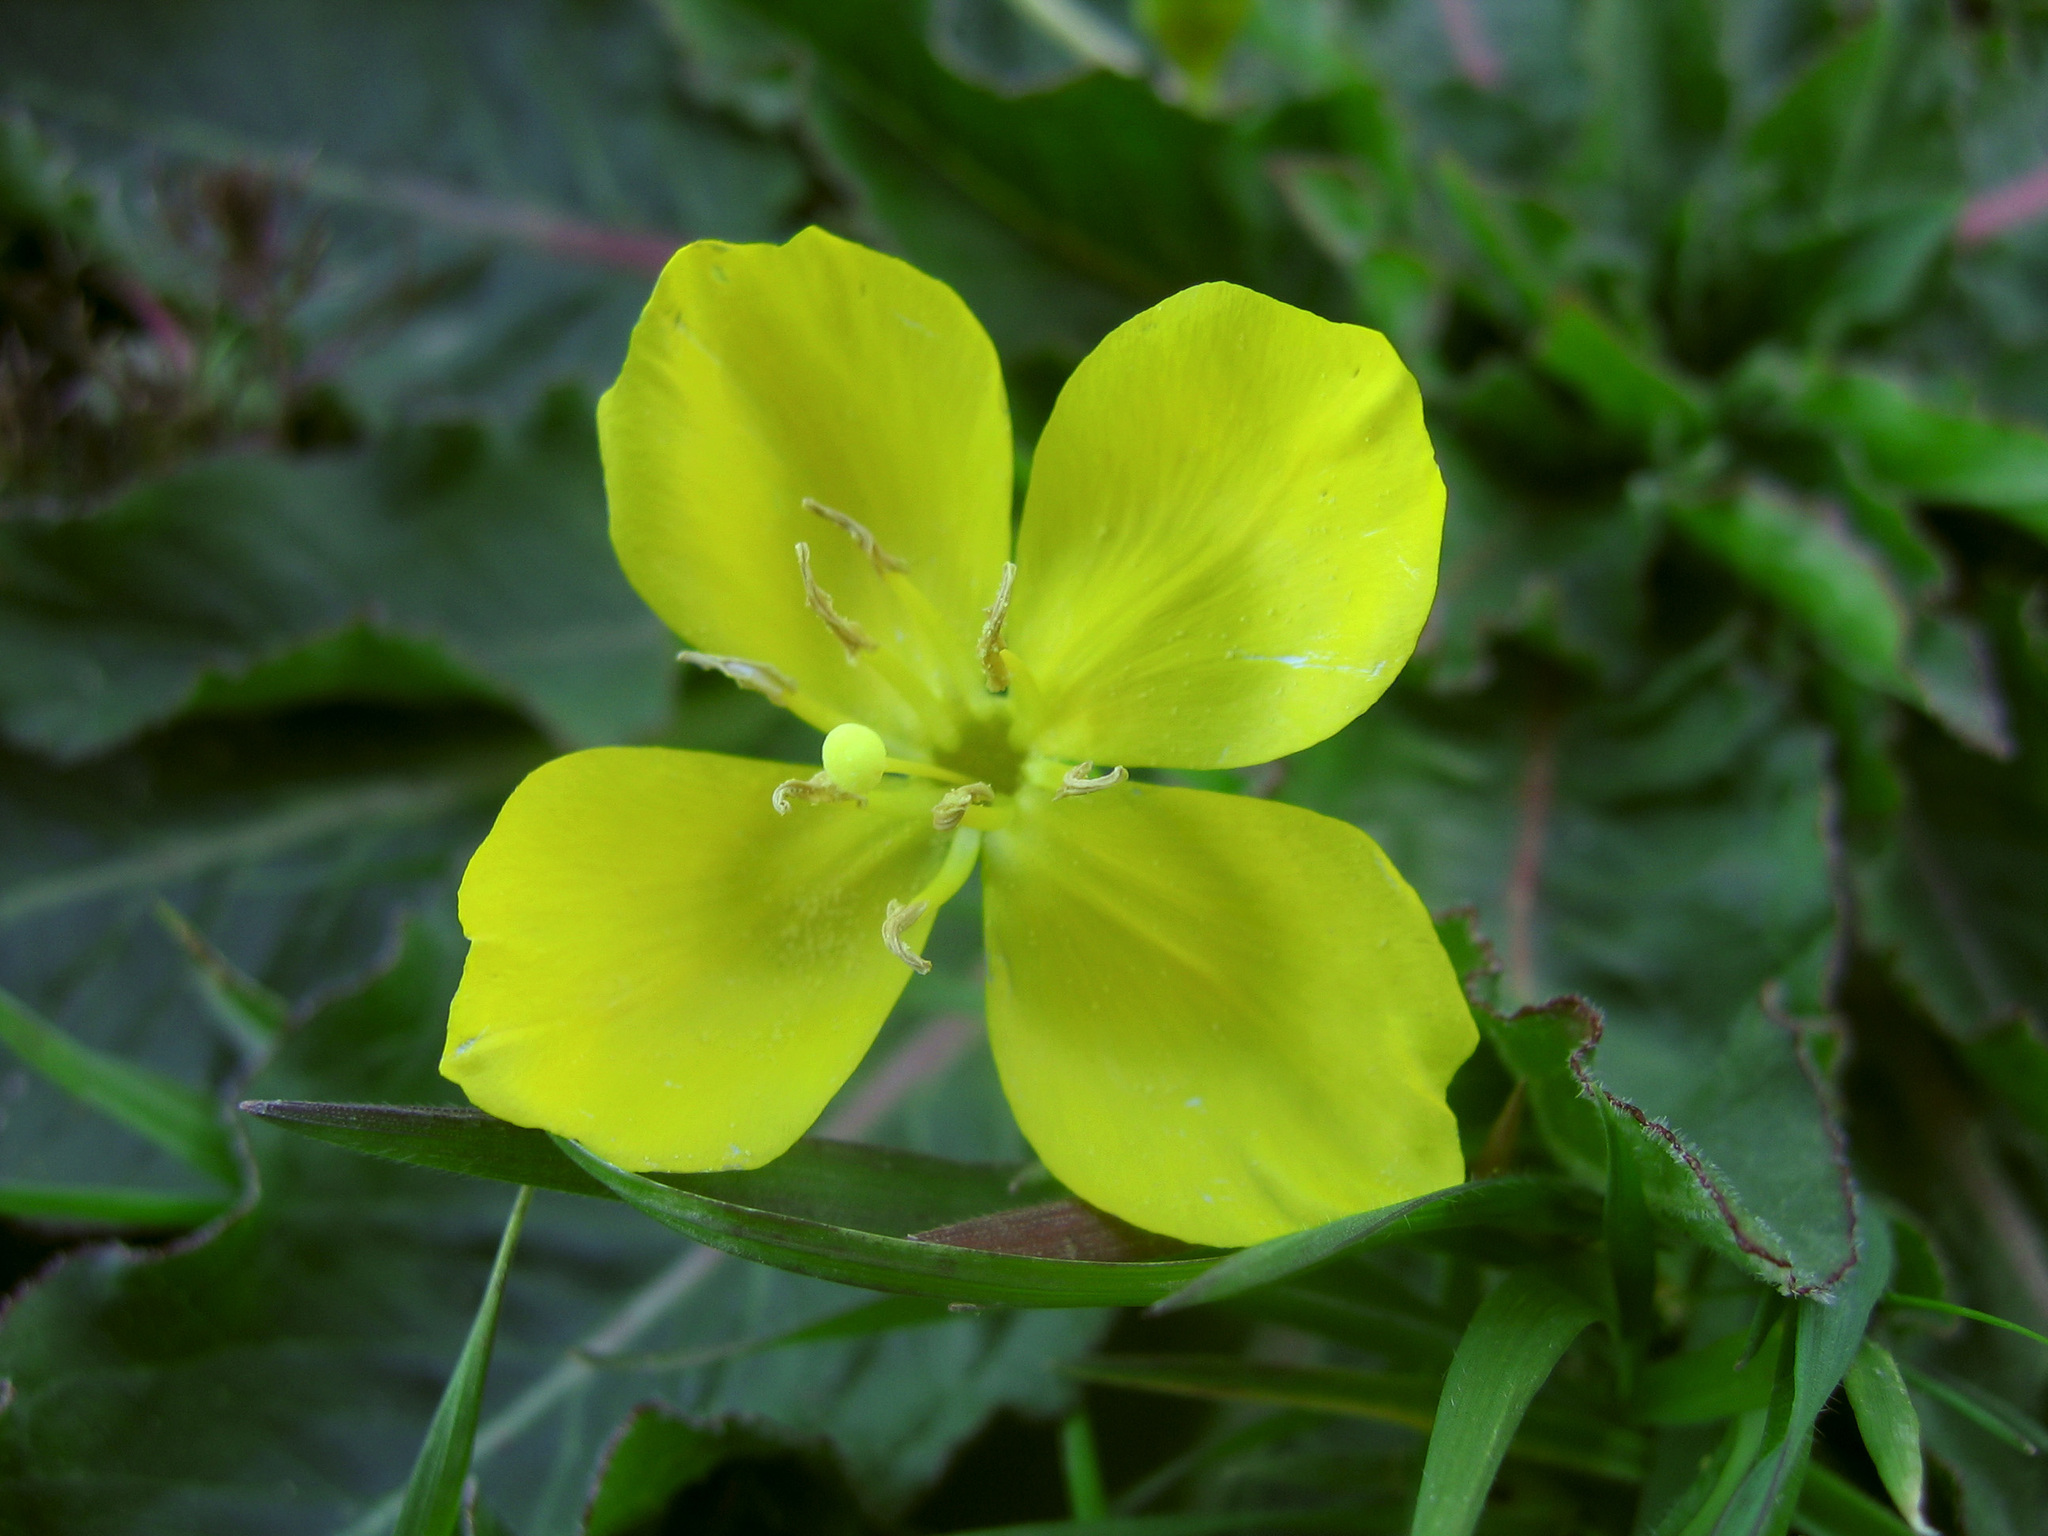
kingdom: Plantae
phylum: Tracheophyta
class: Magnoliopsida
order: Myrtales
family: Onagraceae
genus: Taraxia
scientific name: Taraxia ovata
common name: Goldeneggs
